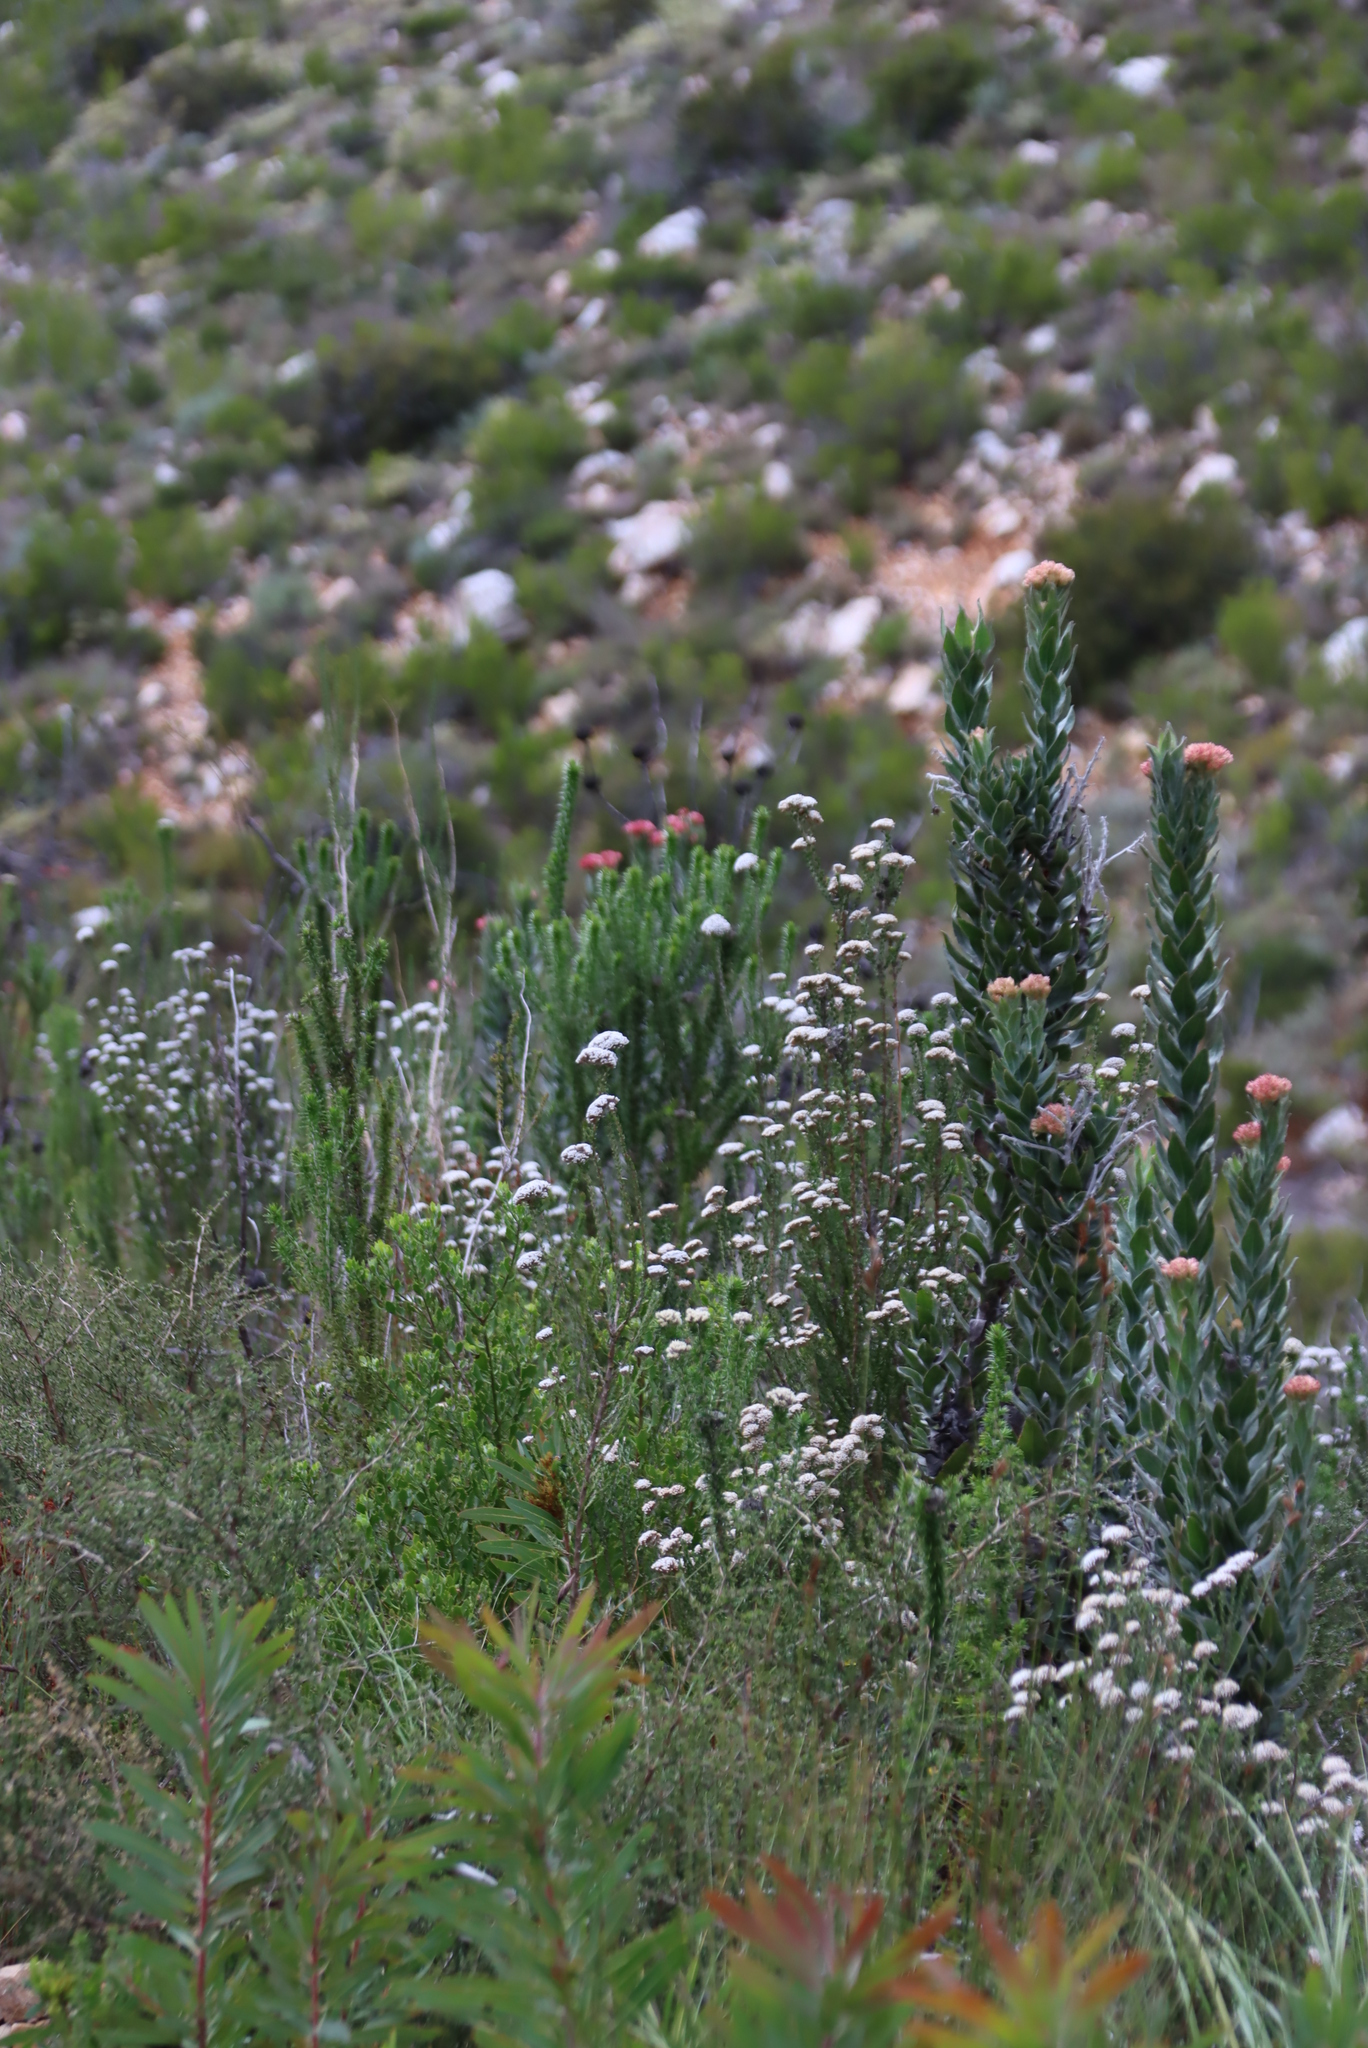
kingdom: Plantae
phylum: Tracheophyta
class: Magnoliopsida
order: Proteales
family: Proteaceae
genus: Protea
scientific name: Protea neriifolia
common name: Blue sugarbush
